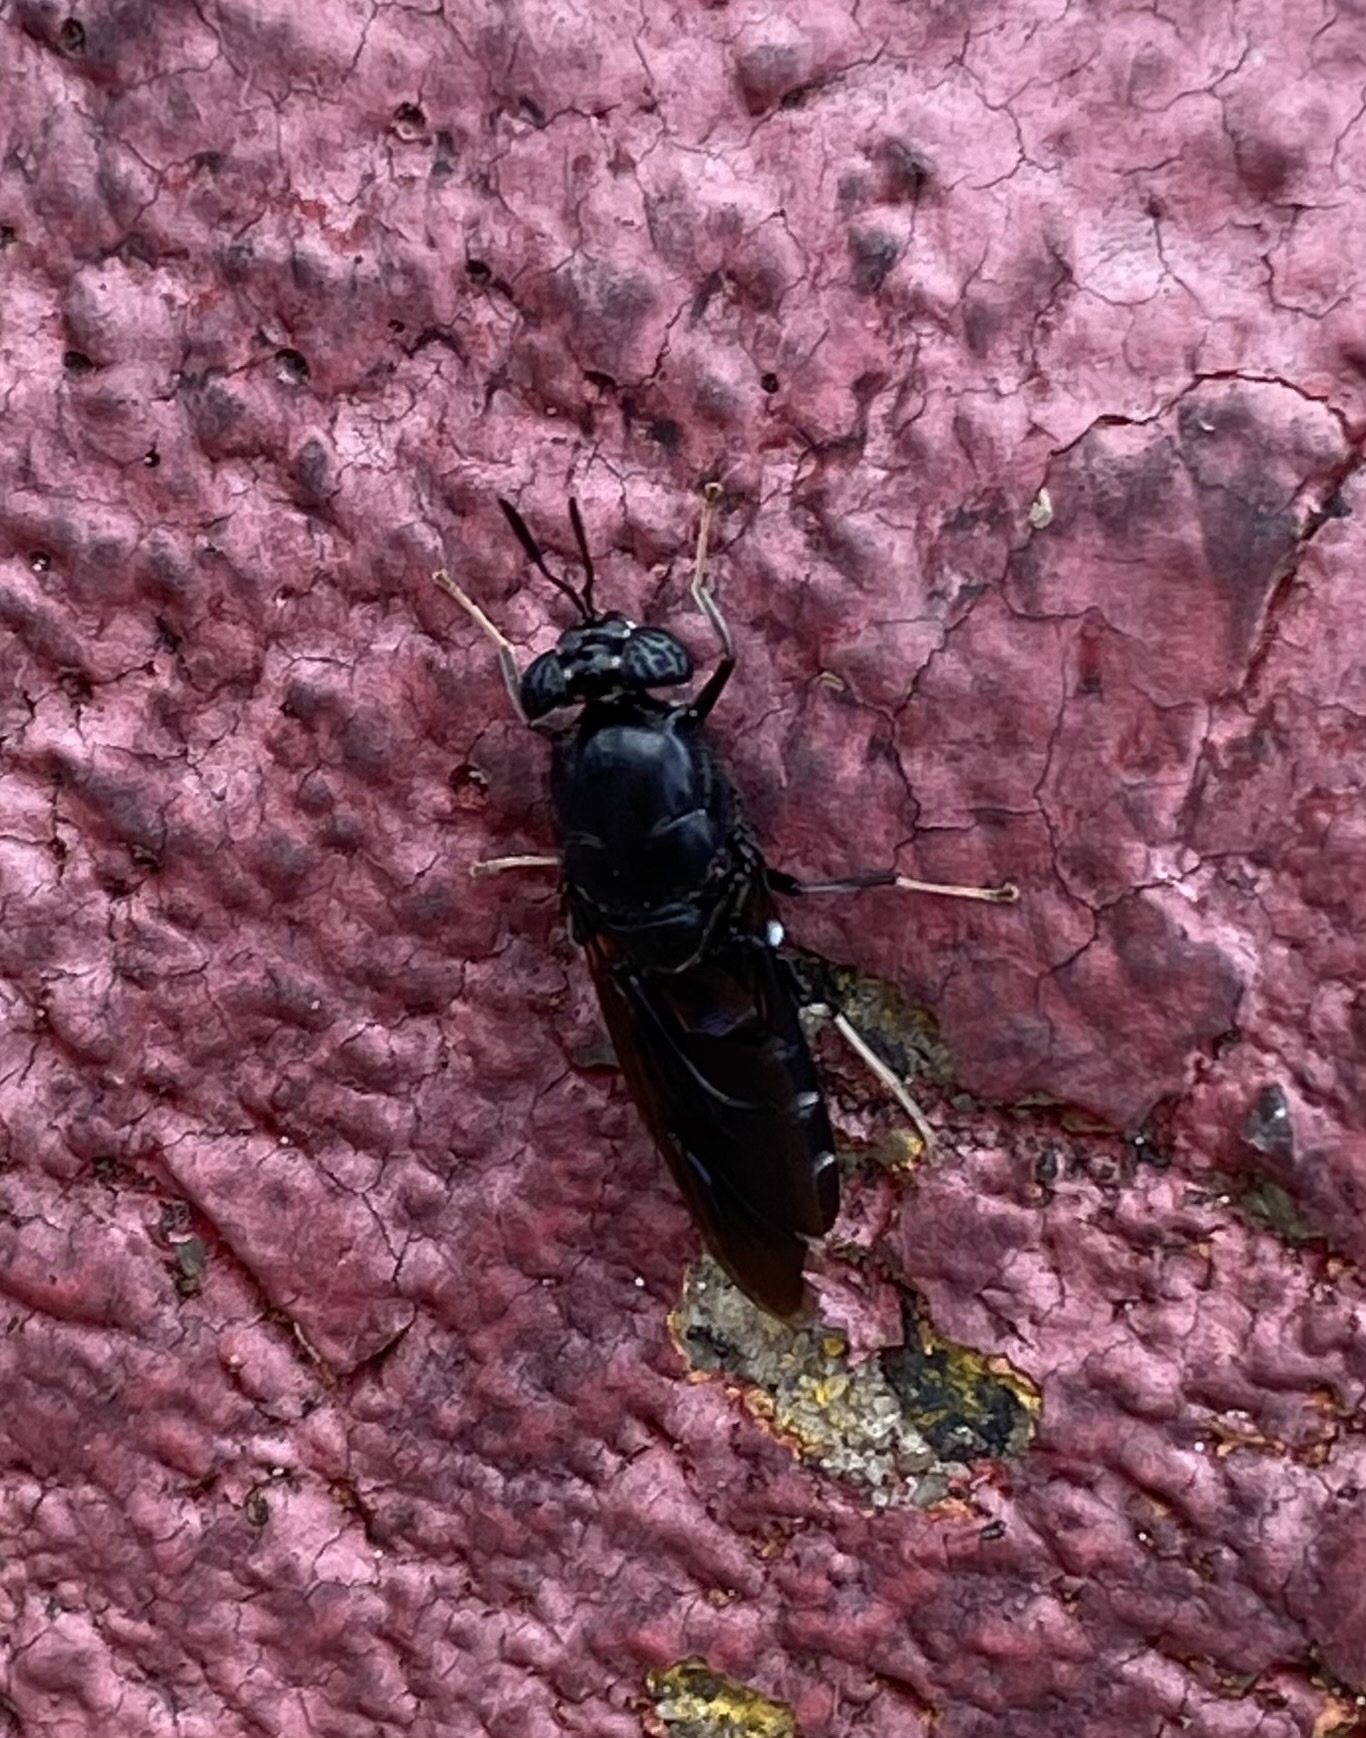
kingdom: Animalia
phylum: Arthropoda
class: Insecta
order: Diptera
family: Stratiomyidae
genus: Hermetia
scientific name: Hermetia illucens
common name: Black soldier fly
